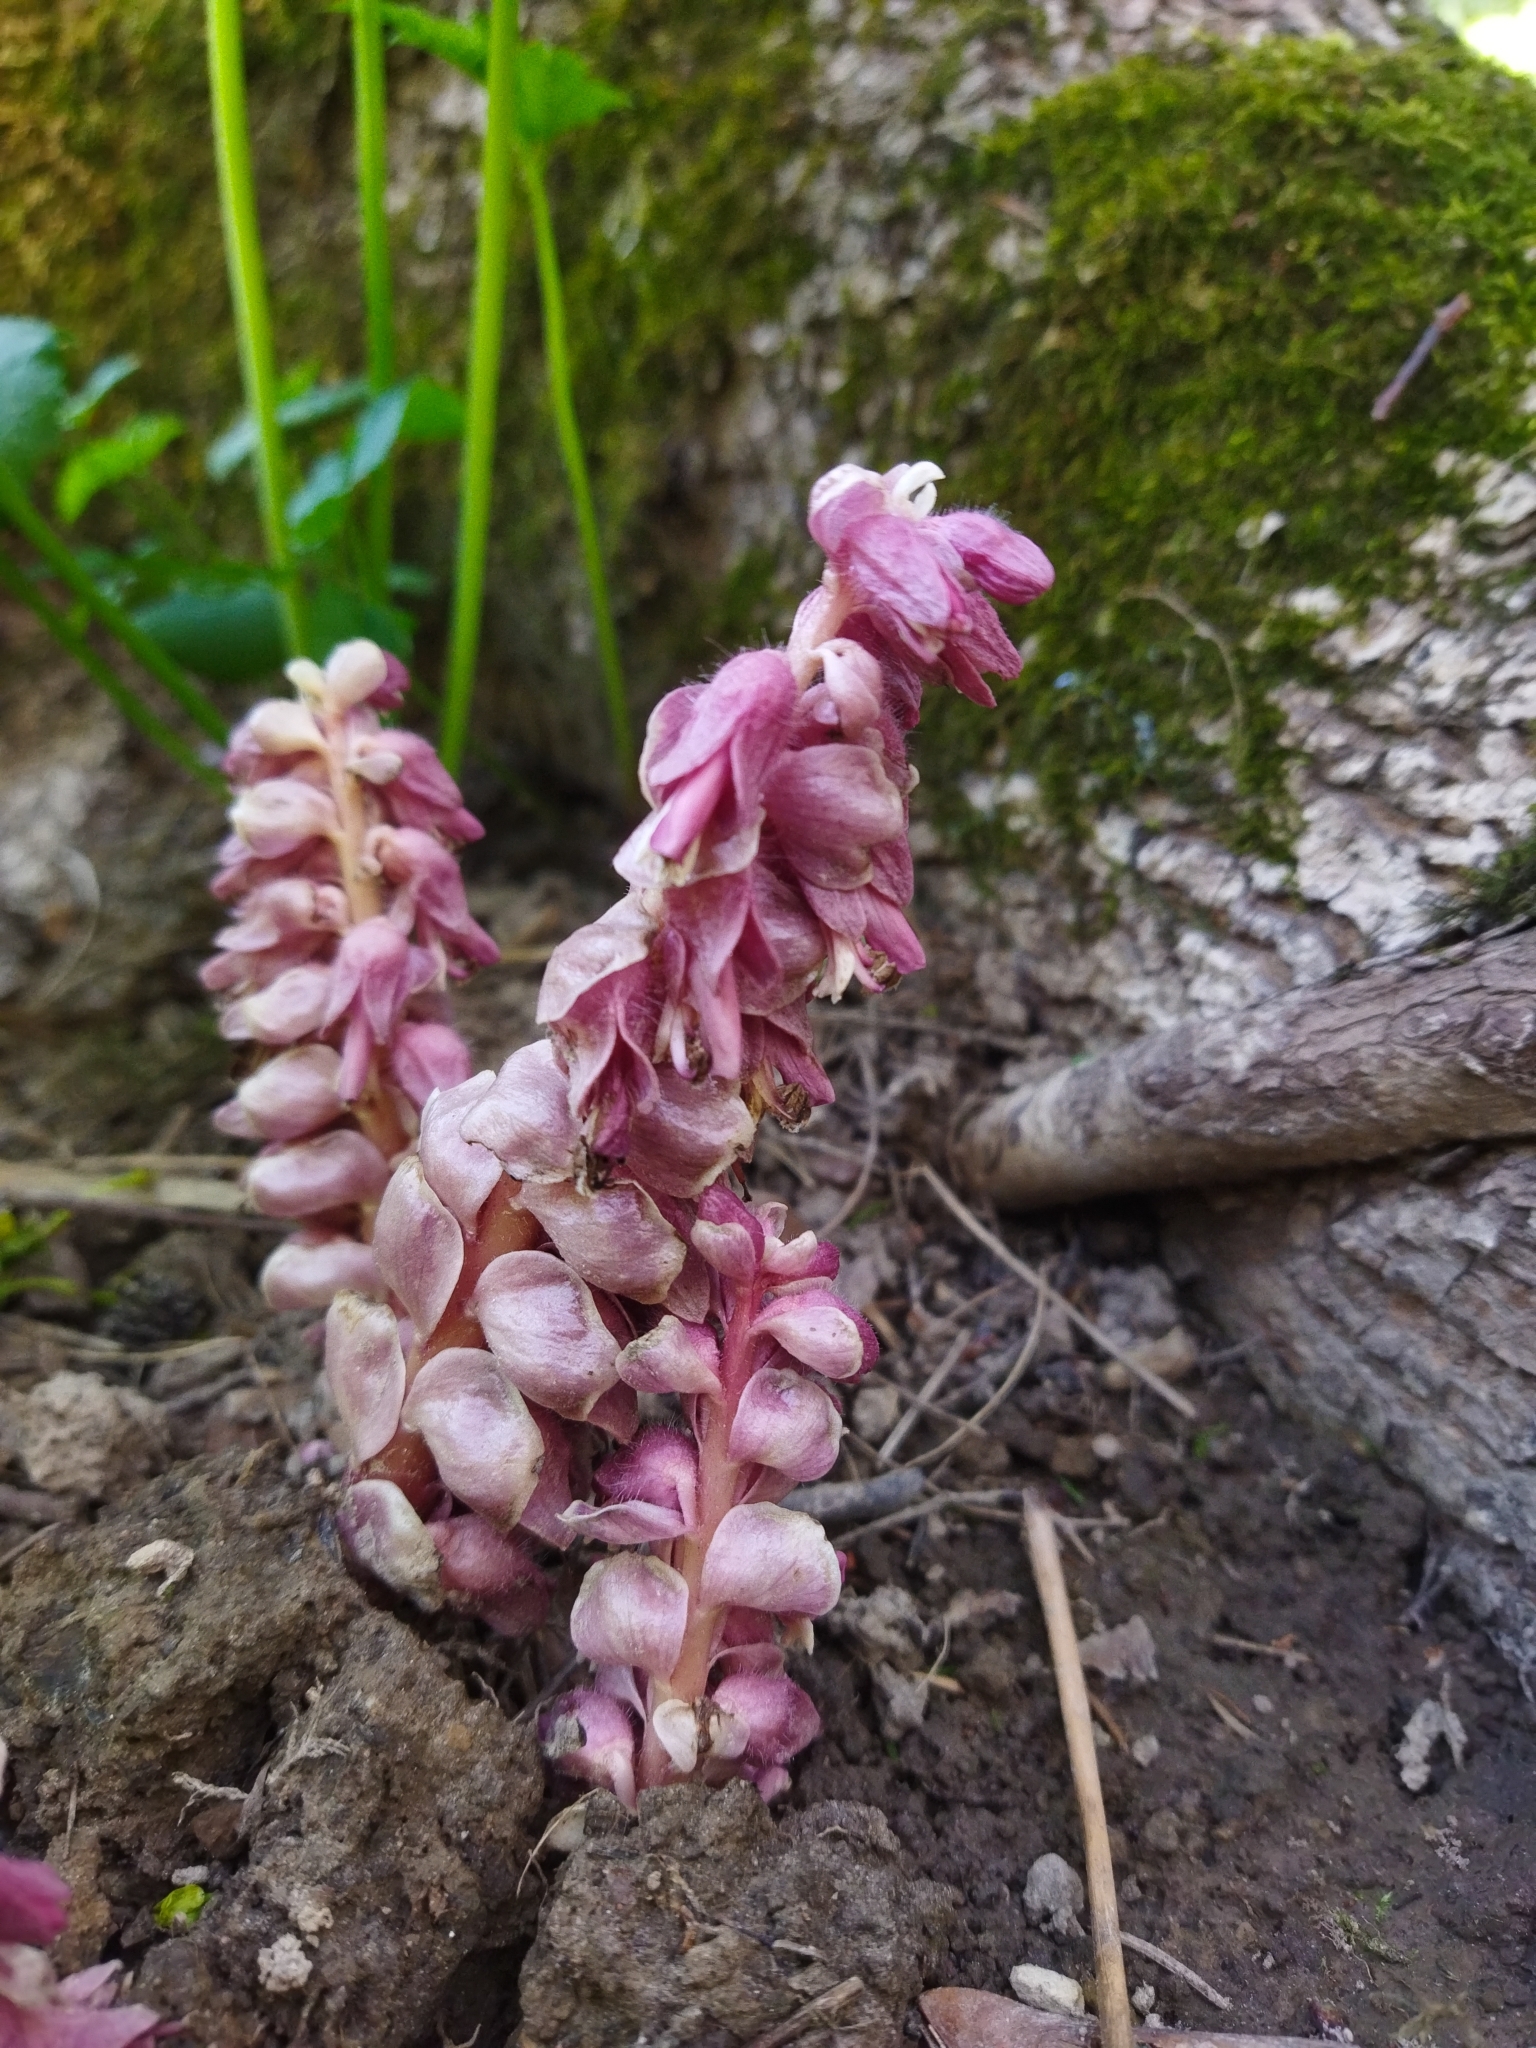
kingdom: Plantae
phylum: Tracheophyta
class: Magnoliopsida
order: Lamiales
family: Orobanchaceae
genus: Lathraea
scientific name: Lathraea squamaria
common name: Toothwort
